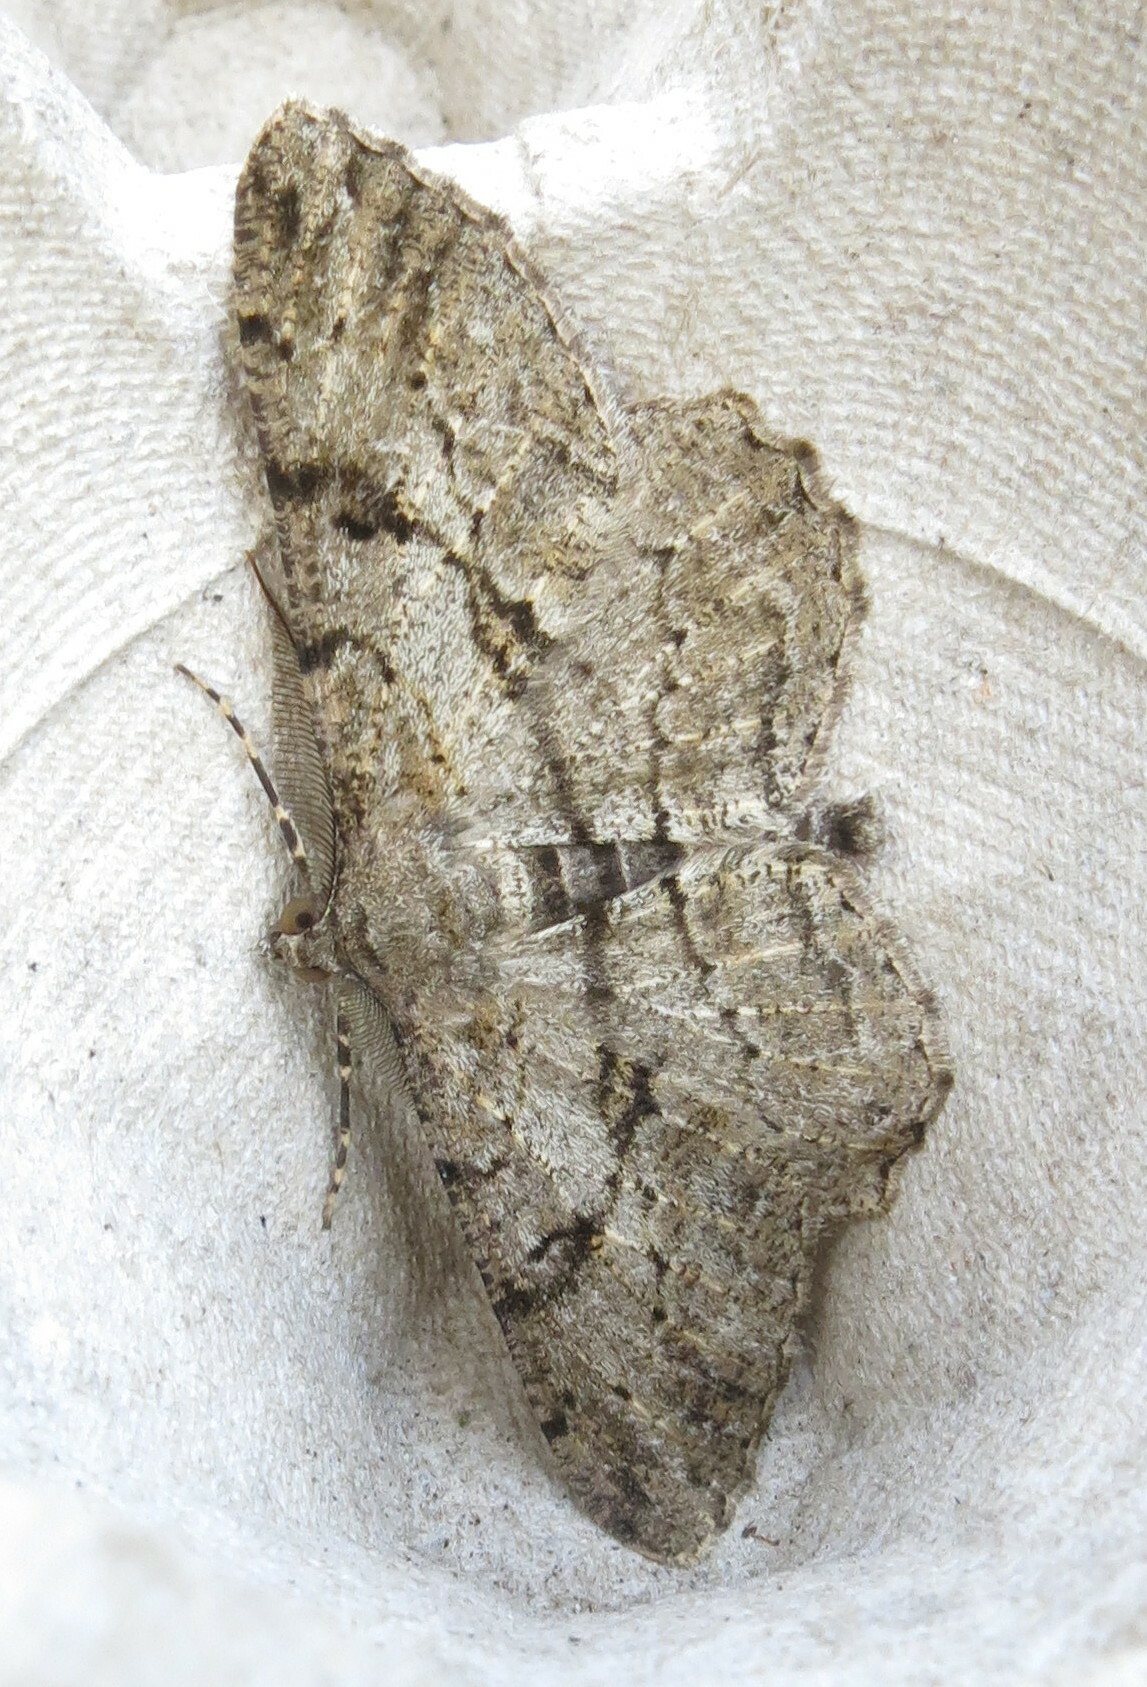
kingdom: Animalia
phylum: Arthropoda
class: Insecta
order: Lepidoptera
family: Geometridae
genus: Peribatodes
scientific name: Peribatodes rhomboidaria
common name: Willow beauty
